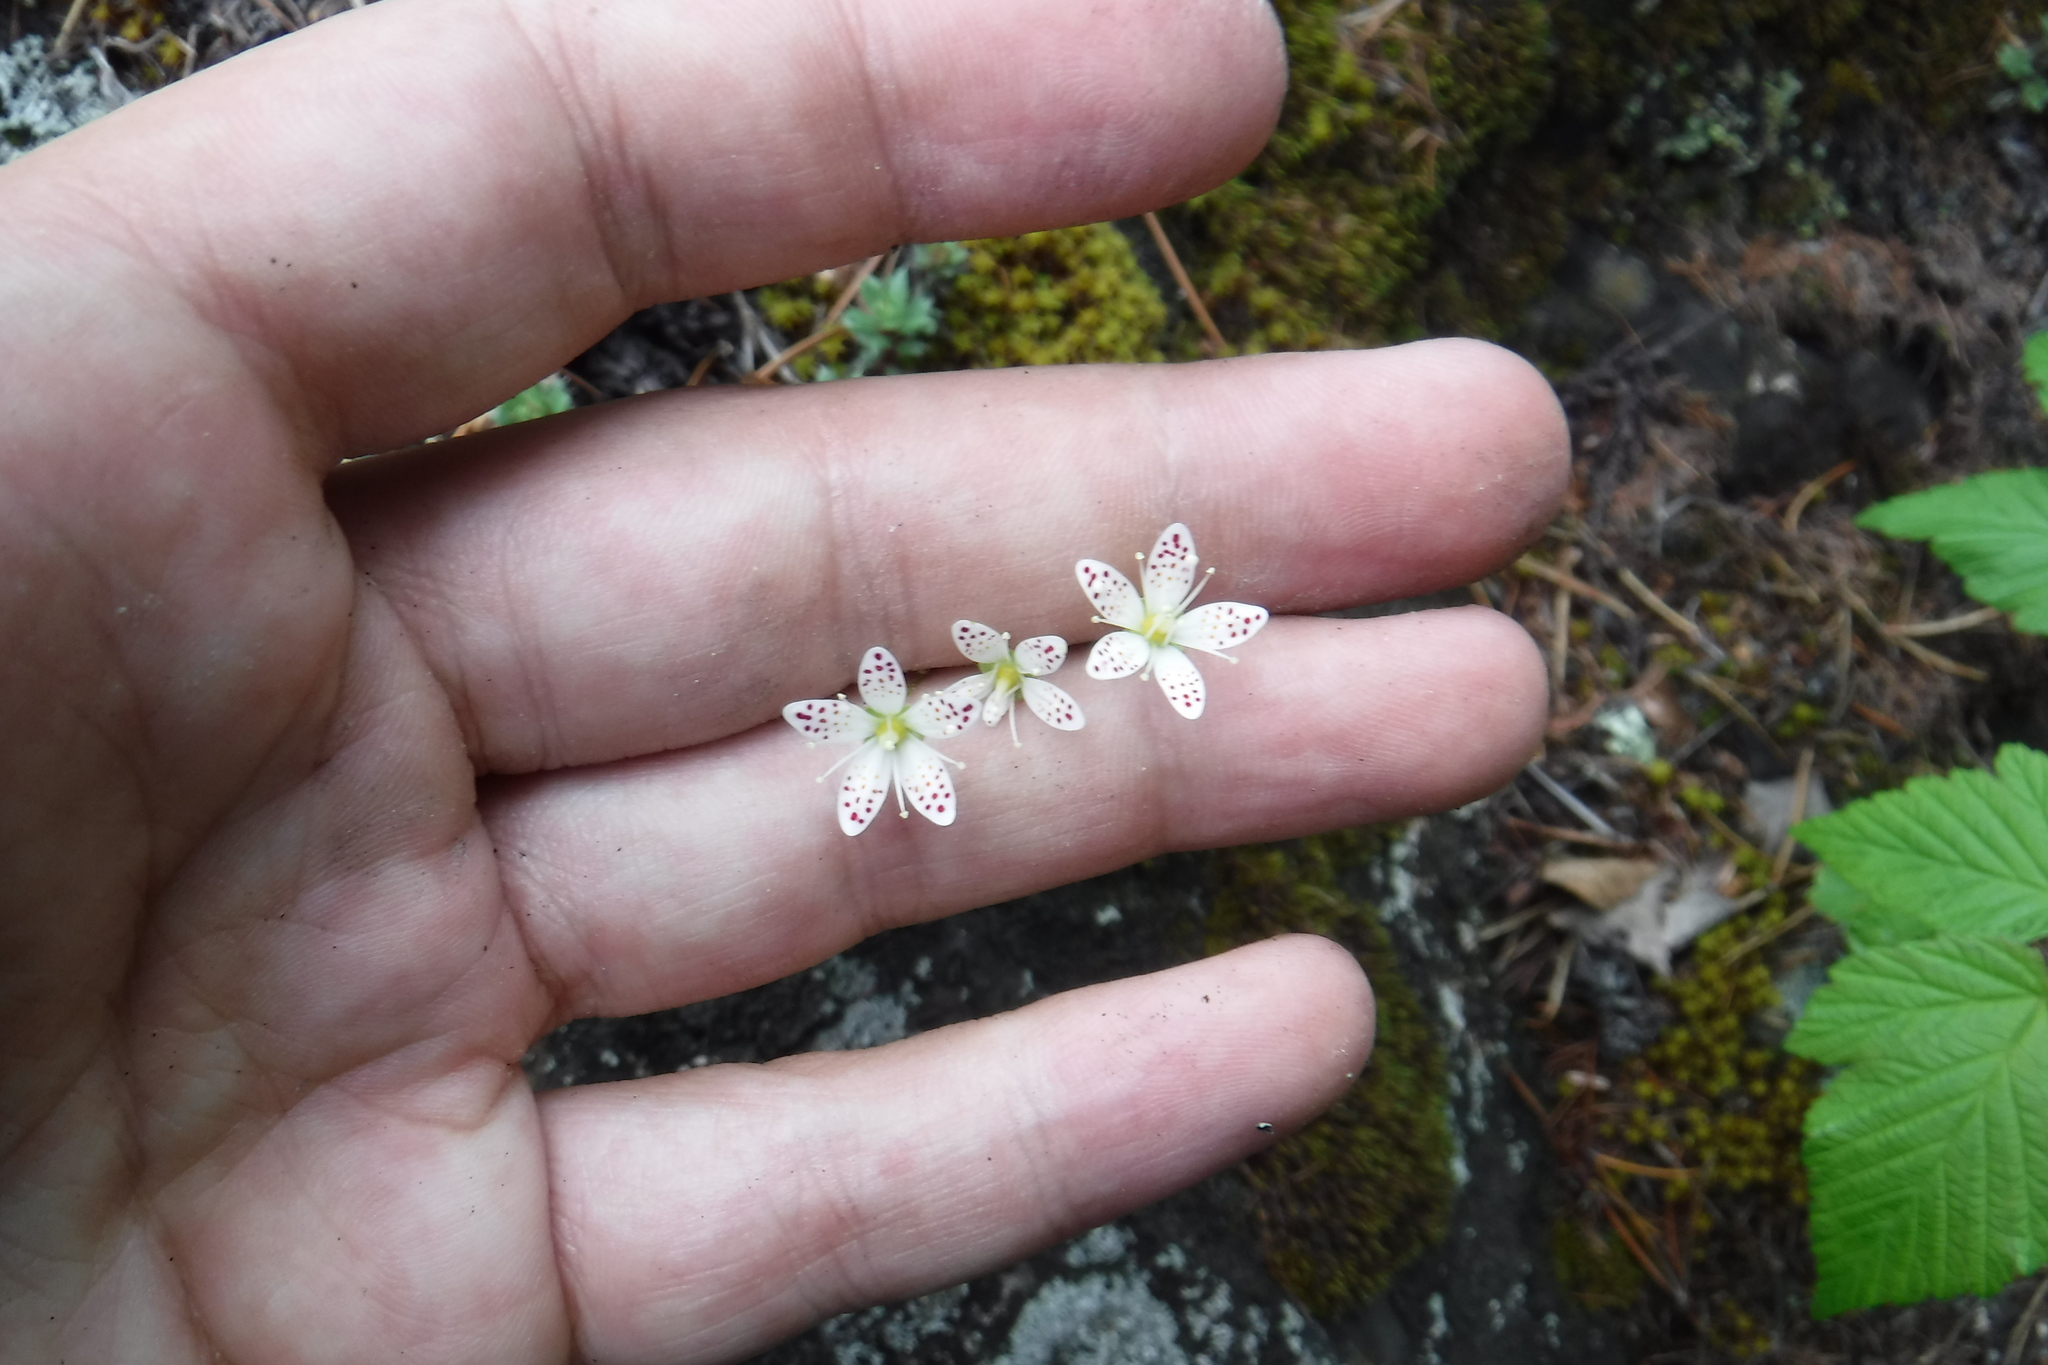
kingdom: Plantae
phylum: Tracheophyta
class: Magnoliopsida
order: Saxifragales
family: Saxifragaceae
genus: Saxifraga
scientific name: Saxifraga tricuspidata
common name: Prickly saxifrage
